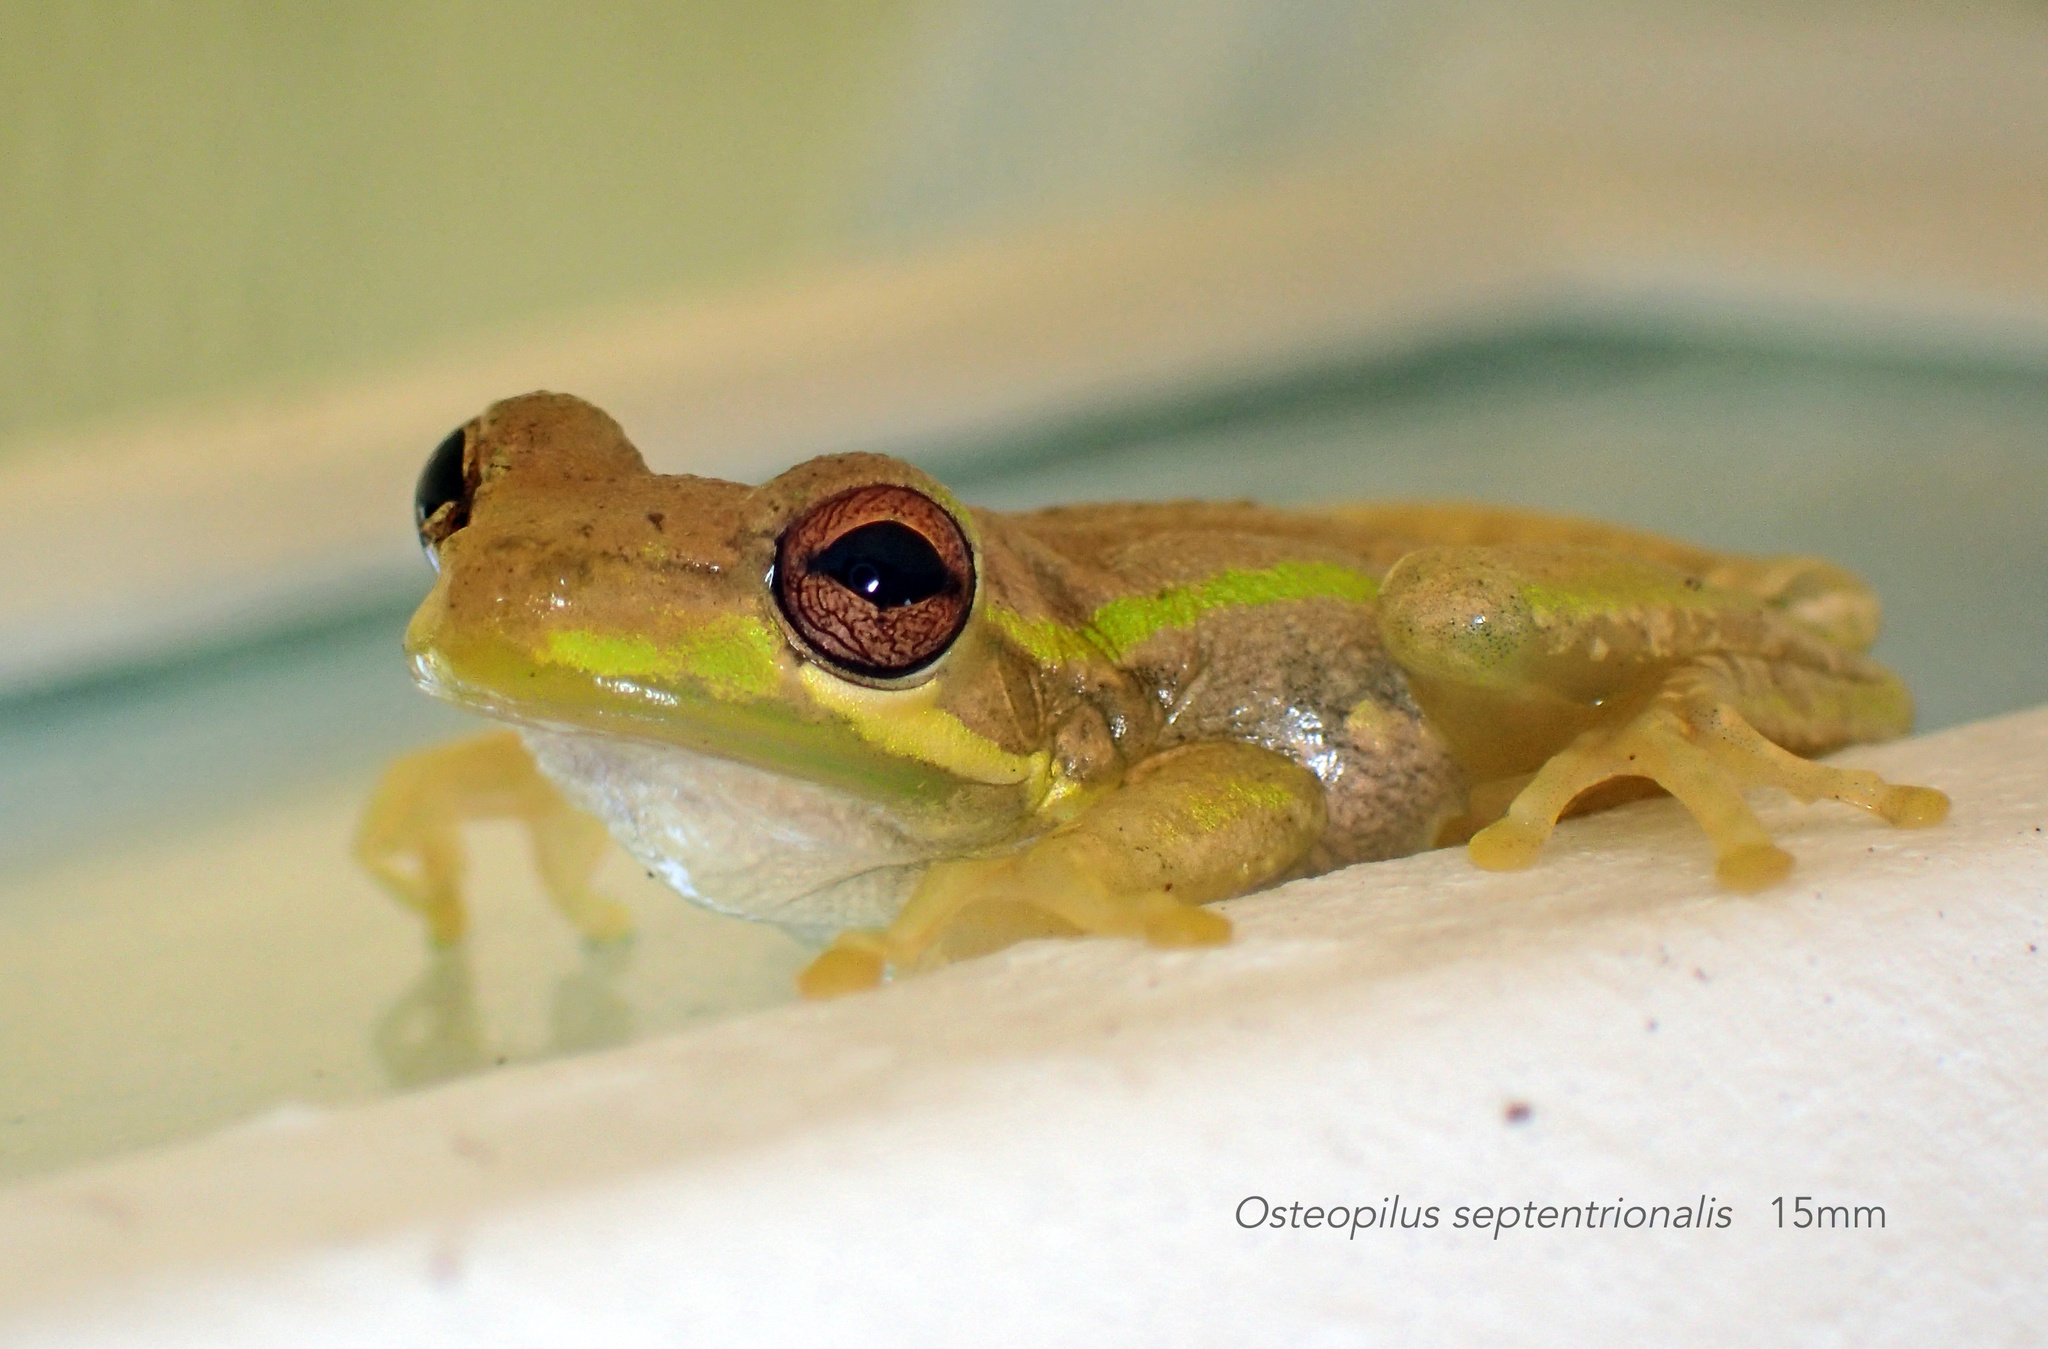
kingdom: Animalia
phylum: Chordata
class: Amphibia
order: Anura
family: Hylidae
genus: Osteopilus
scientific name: Osteopilus septentrionalis
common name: Cuban treefrog
